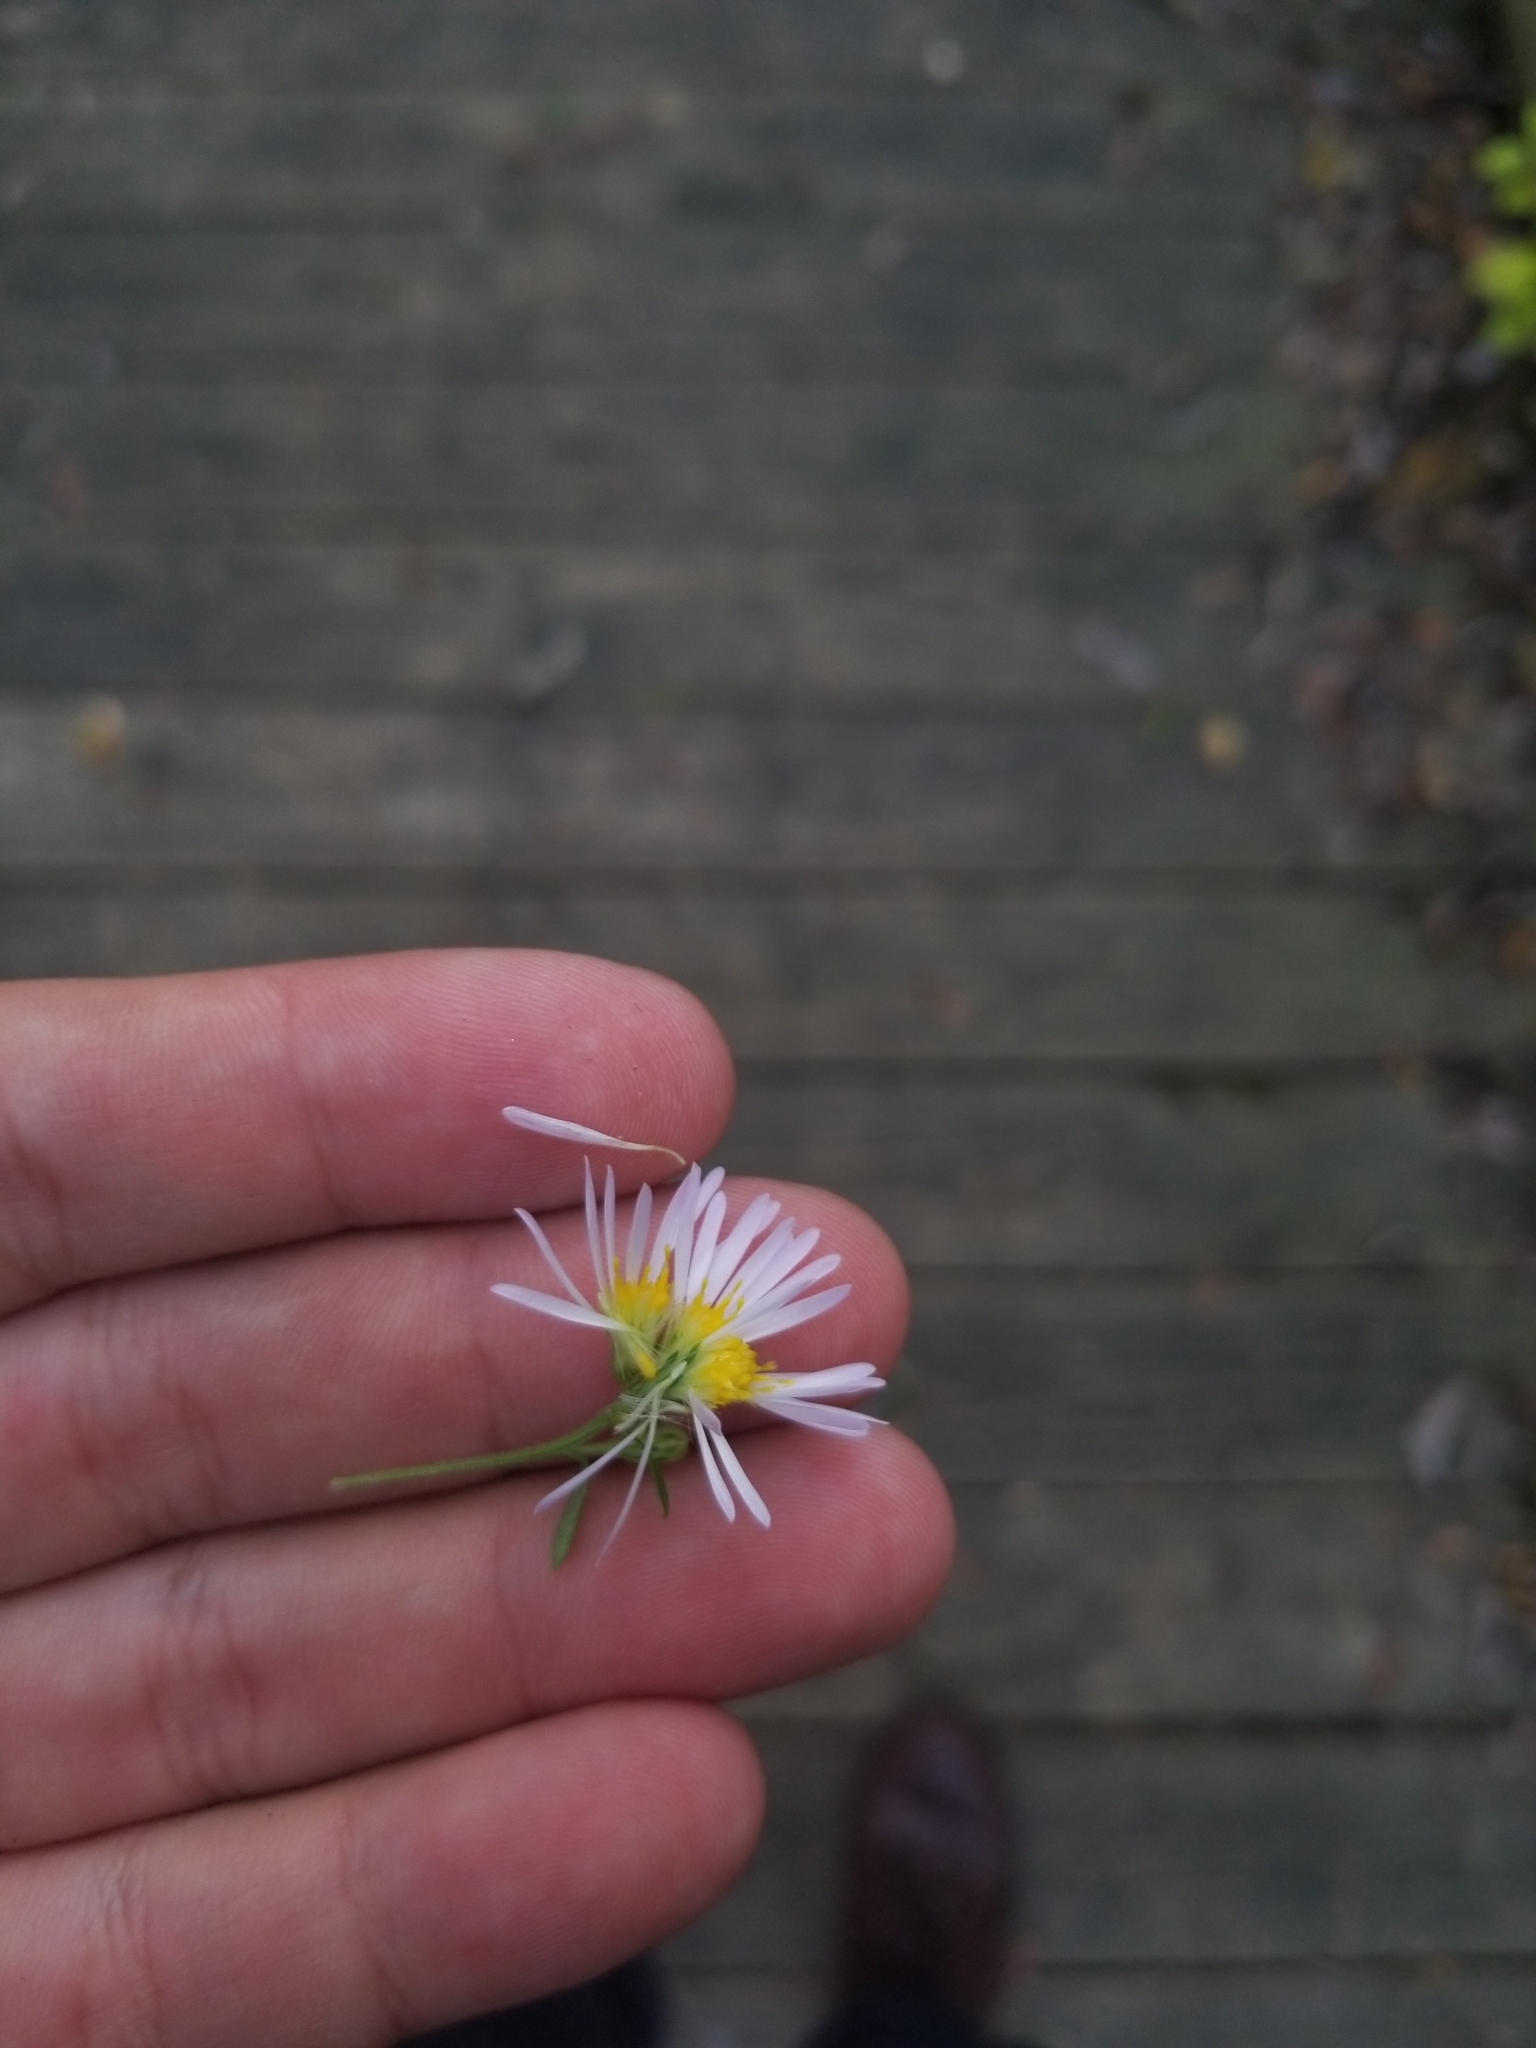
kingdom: Plantae
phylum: Tracheophyta
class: Magnoliopsida
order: Asterales
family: Asteraceae
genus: Symphyotrichum
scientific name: Symphyotrichum lanceolatum
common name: Panicled aster
